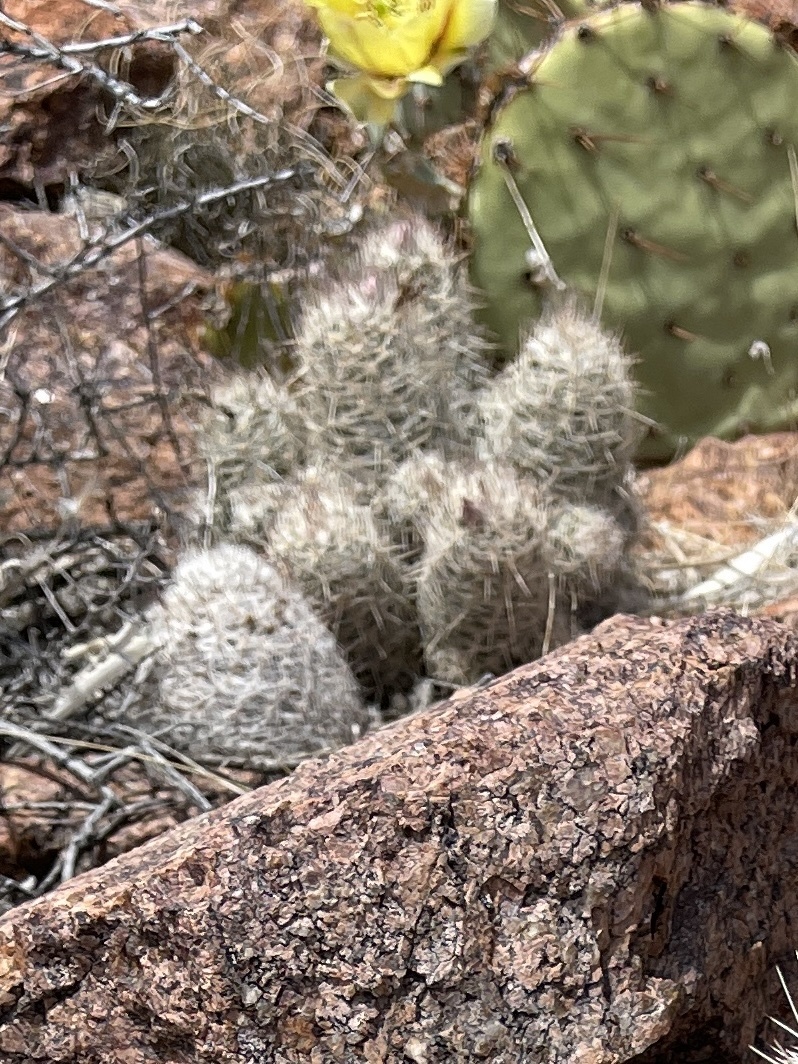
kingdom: Plantae
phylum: Tracheophyta
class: Magnoliopsida
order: Caryophyllales
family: Cactaceae
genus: Pelecyphora
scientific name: Pelecyphora tuberculosa
